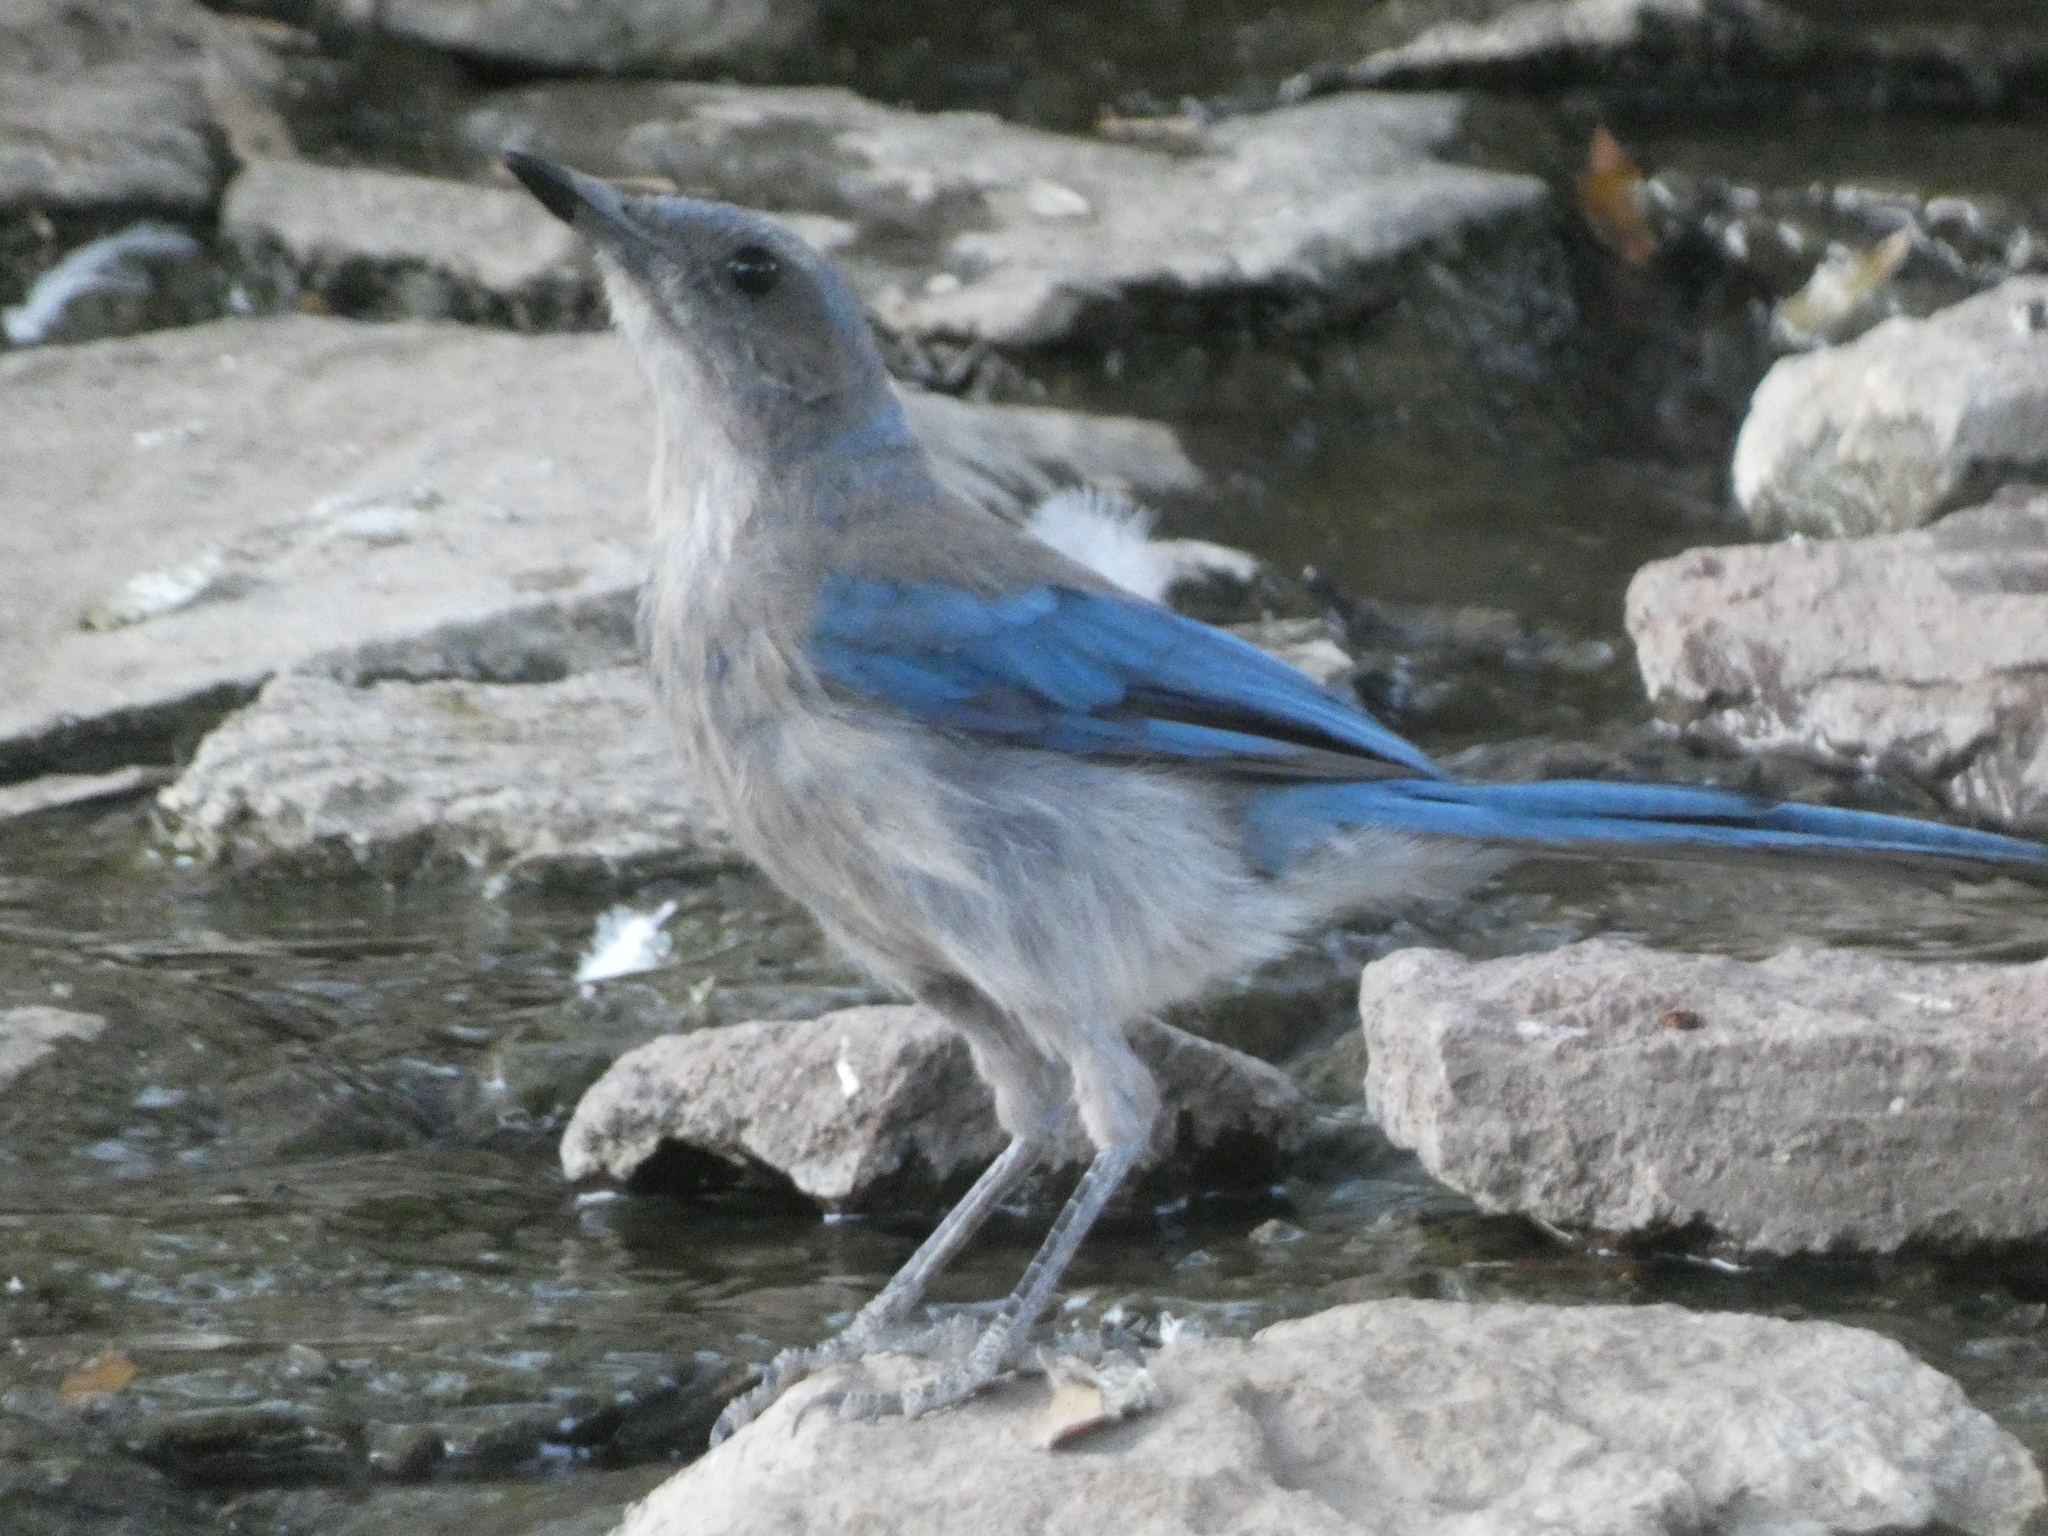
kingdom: Animalia
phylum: Chordata
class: Aves
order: Passeriformes
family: Corvidae
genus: Aphelocoma
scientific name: Aphelocoma woodhouseii
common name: Woodhouse's scrub-jay
